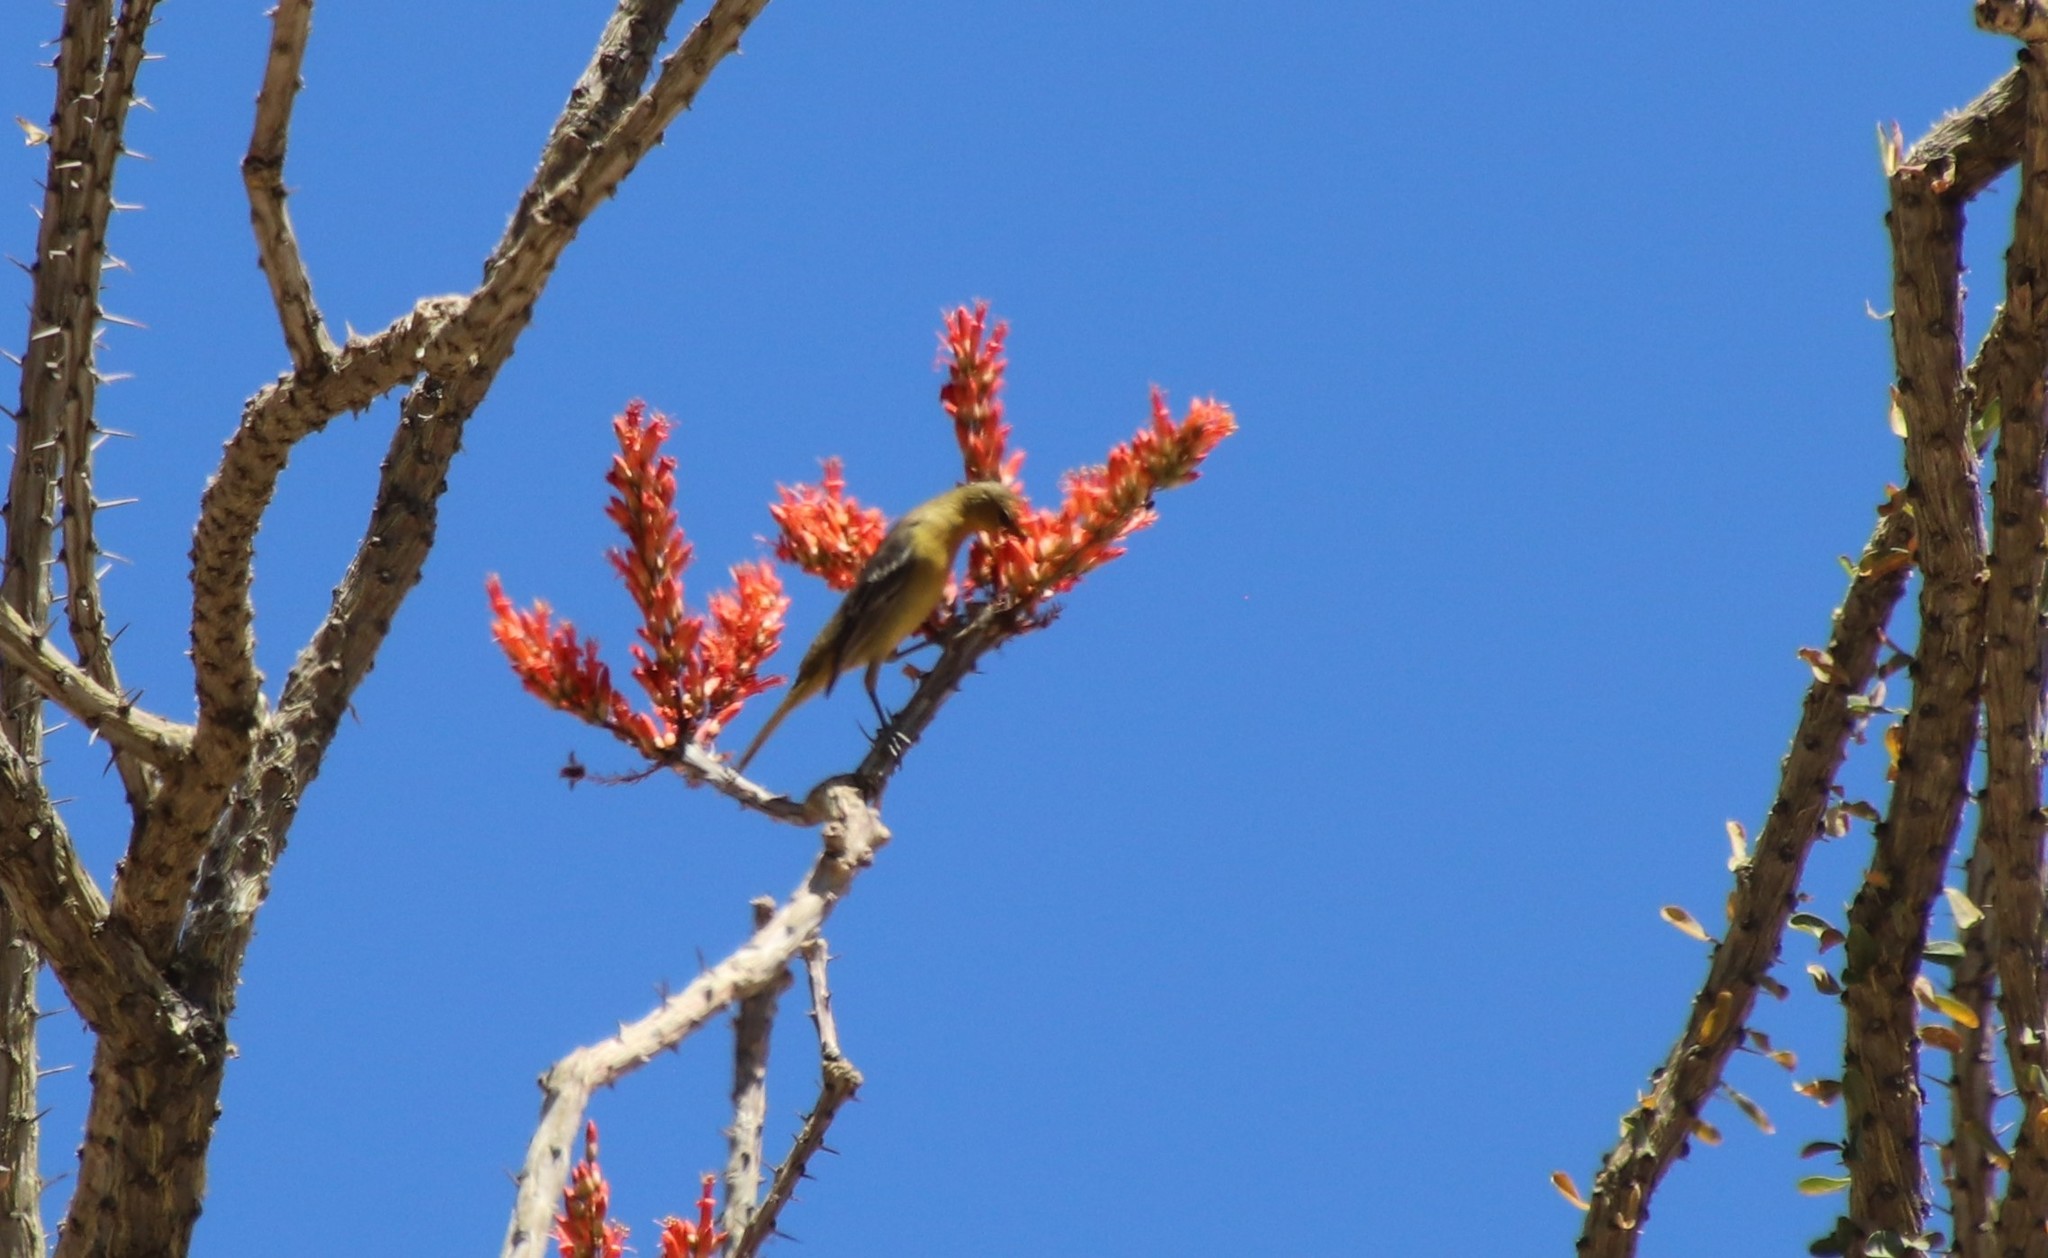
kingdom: Animalia
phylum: Chordata
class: Aves
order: Passeriformes
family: Icteridae
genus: Icterus
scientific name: Icterus cucullatus
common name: Hooded oriole
